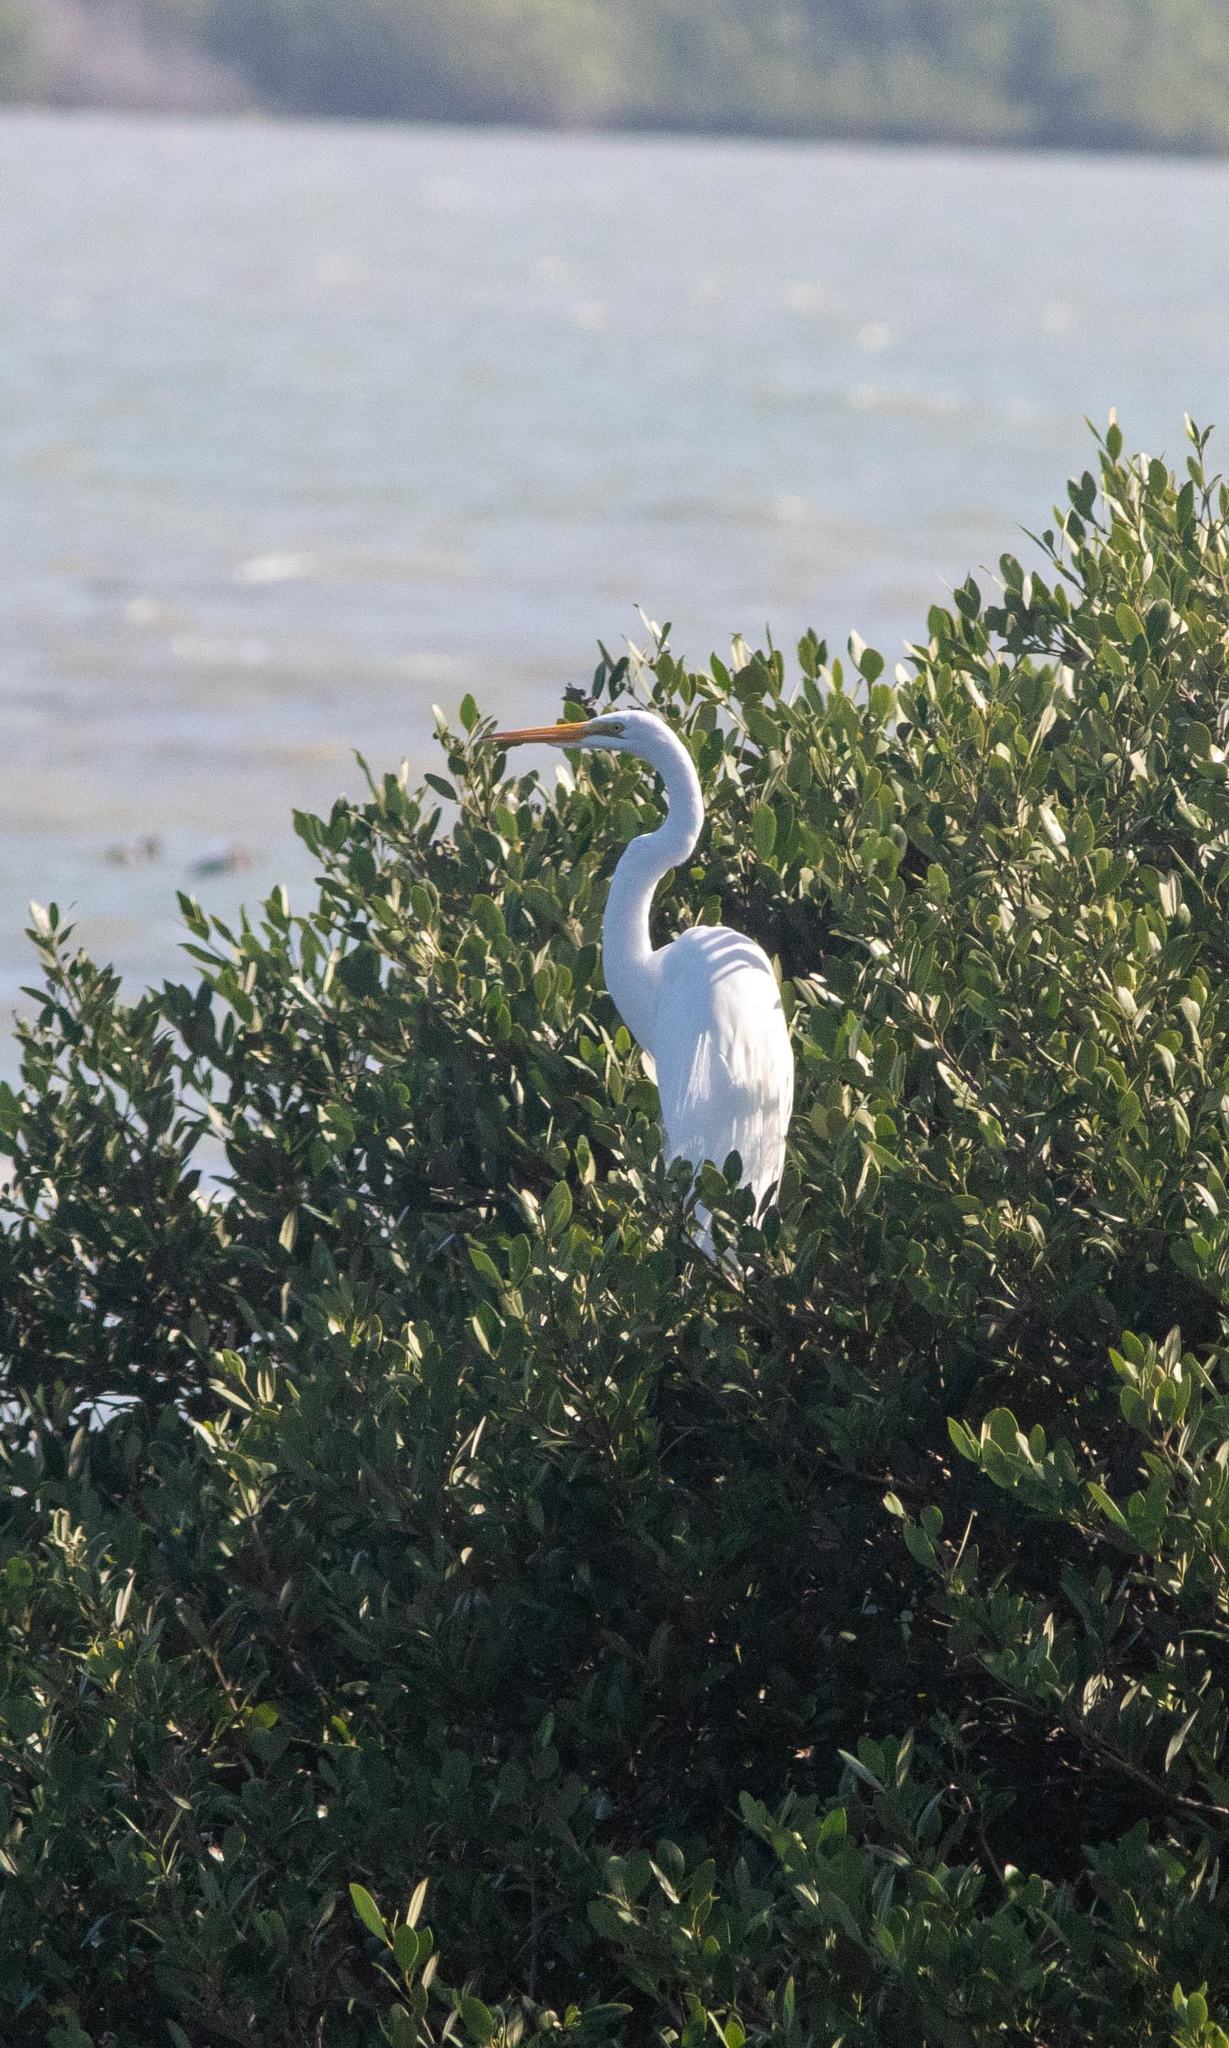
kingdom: Animalia
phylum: Chordata
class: Aves
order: Pelecaniformes
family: Ardeidae
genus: Ardea
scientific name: Ardea alba
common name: Great egret
